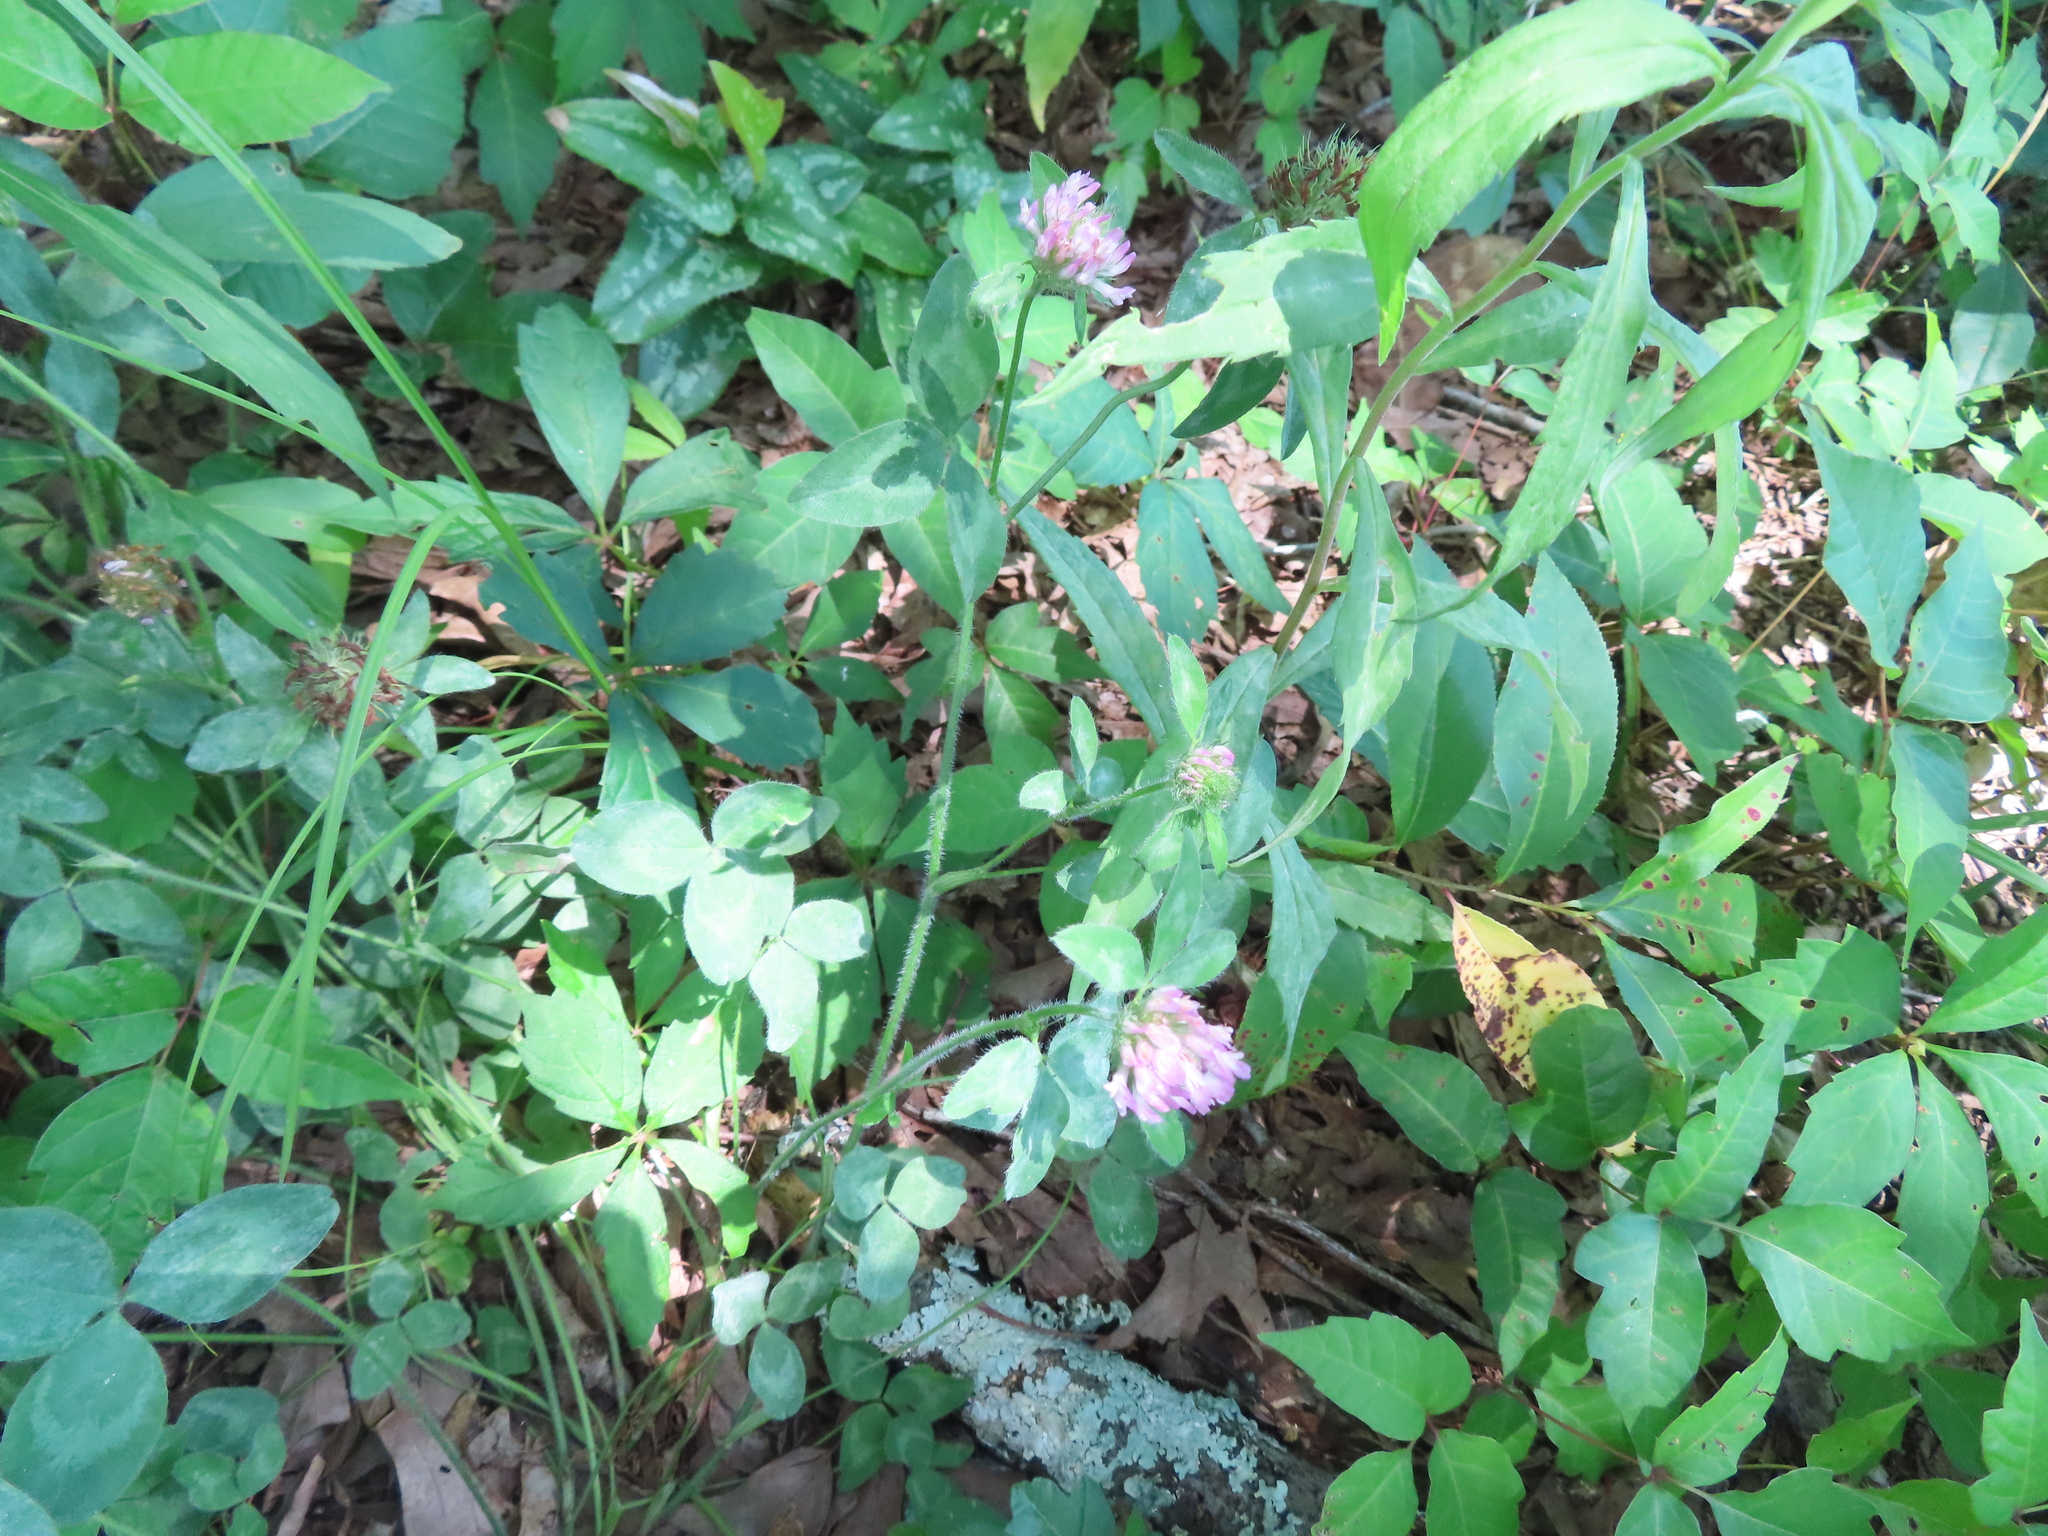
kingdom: Plantae
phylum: Tracheophyta
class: Magnoliopsida
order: Fabales
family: Fabaceae
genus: Trifolium
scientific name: Trifolium pratense
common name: Red clover
